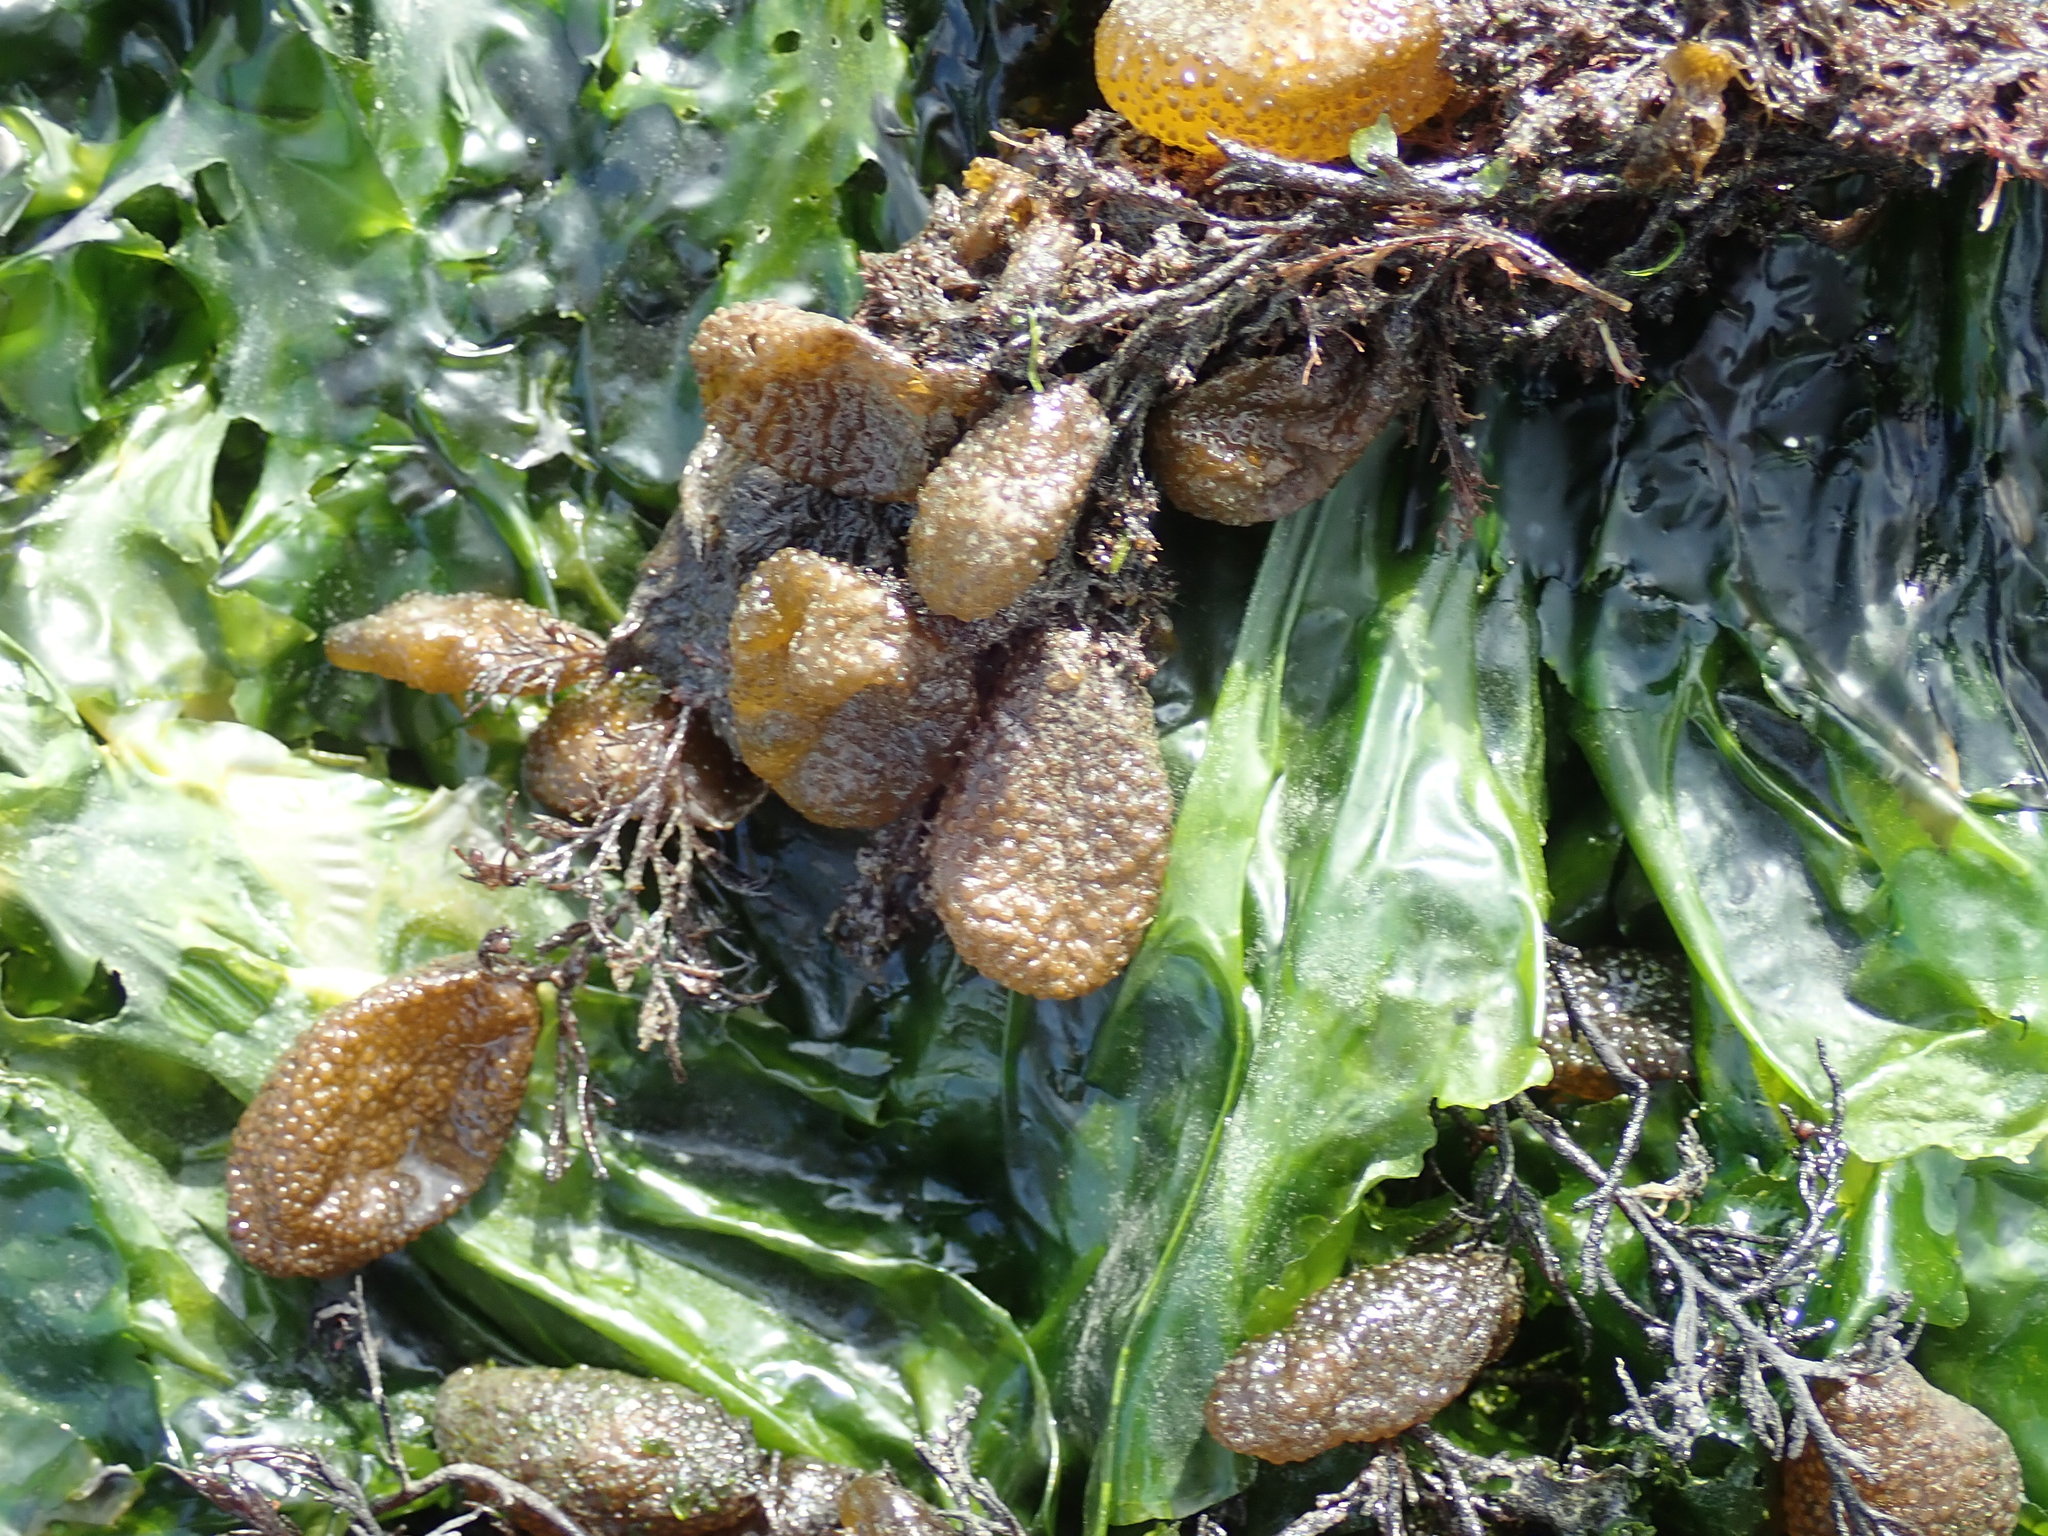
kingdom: Chromista
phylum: Ochrophyta
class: Phaeophyceae
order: Dictyosiphonales
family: Punctariaceae
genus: Soranthera
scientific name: Soranthera ulvoidea
